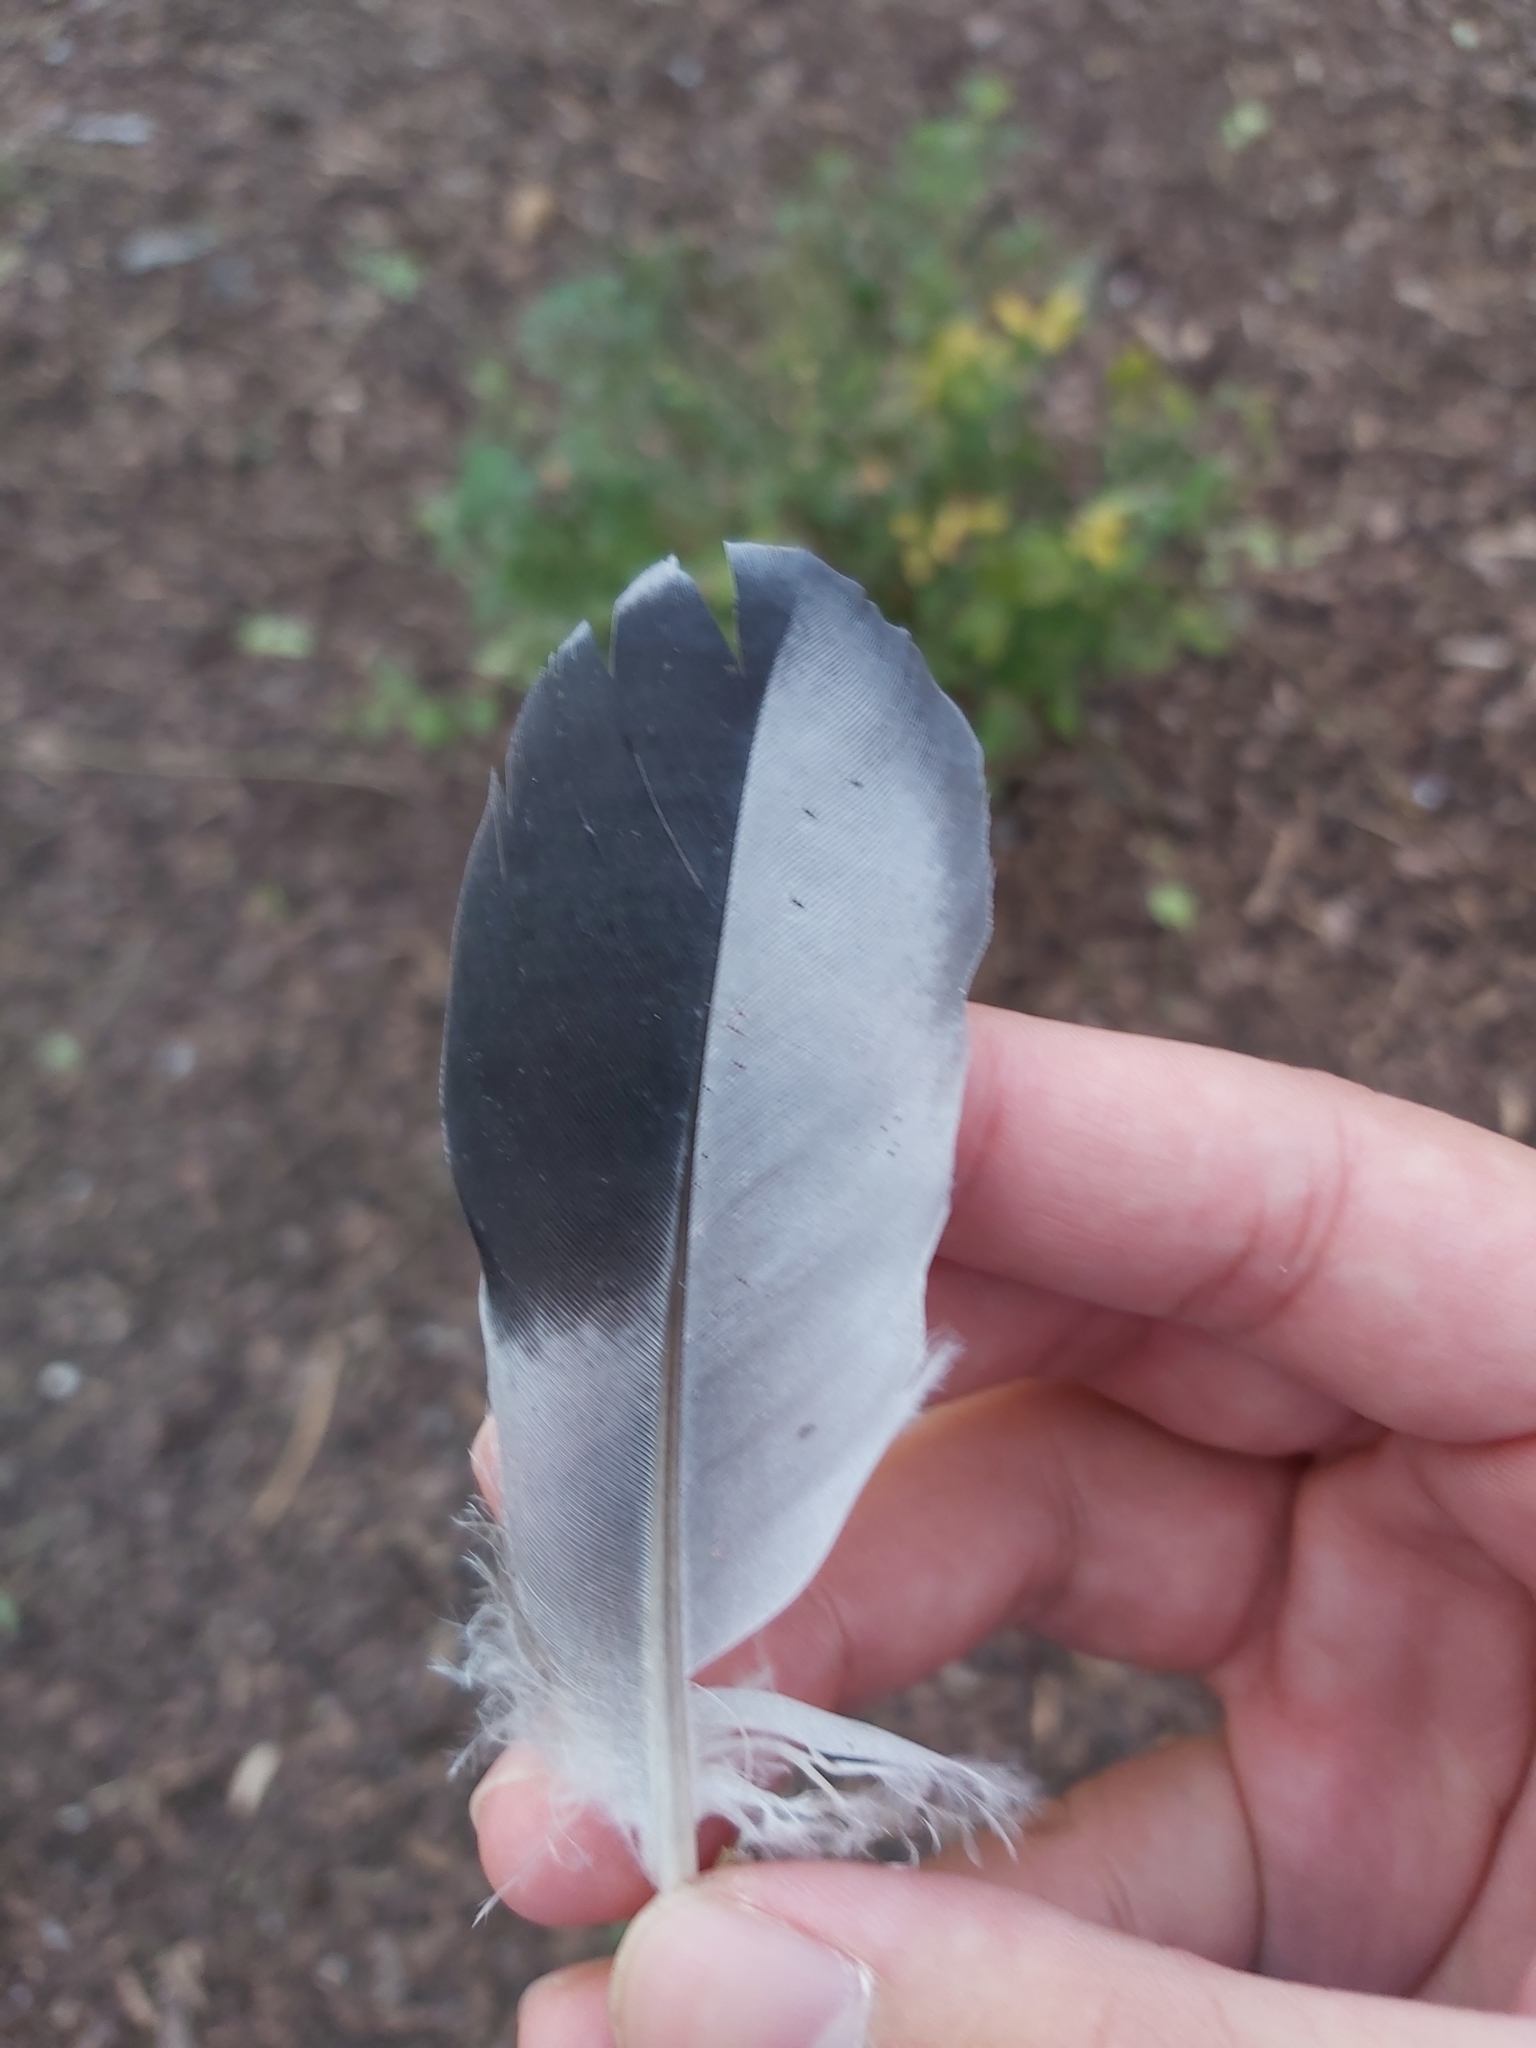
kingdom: Animalia
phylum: Chordata
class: Aves
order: Columbiformes
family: Columbidae
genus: Columba
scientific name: Columba livia
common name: Rock pigeon
